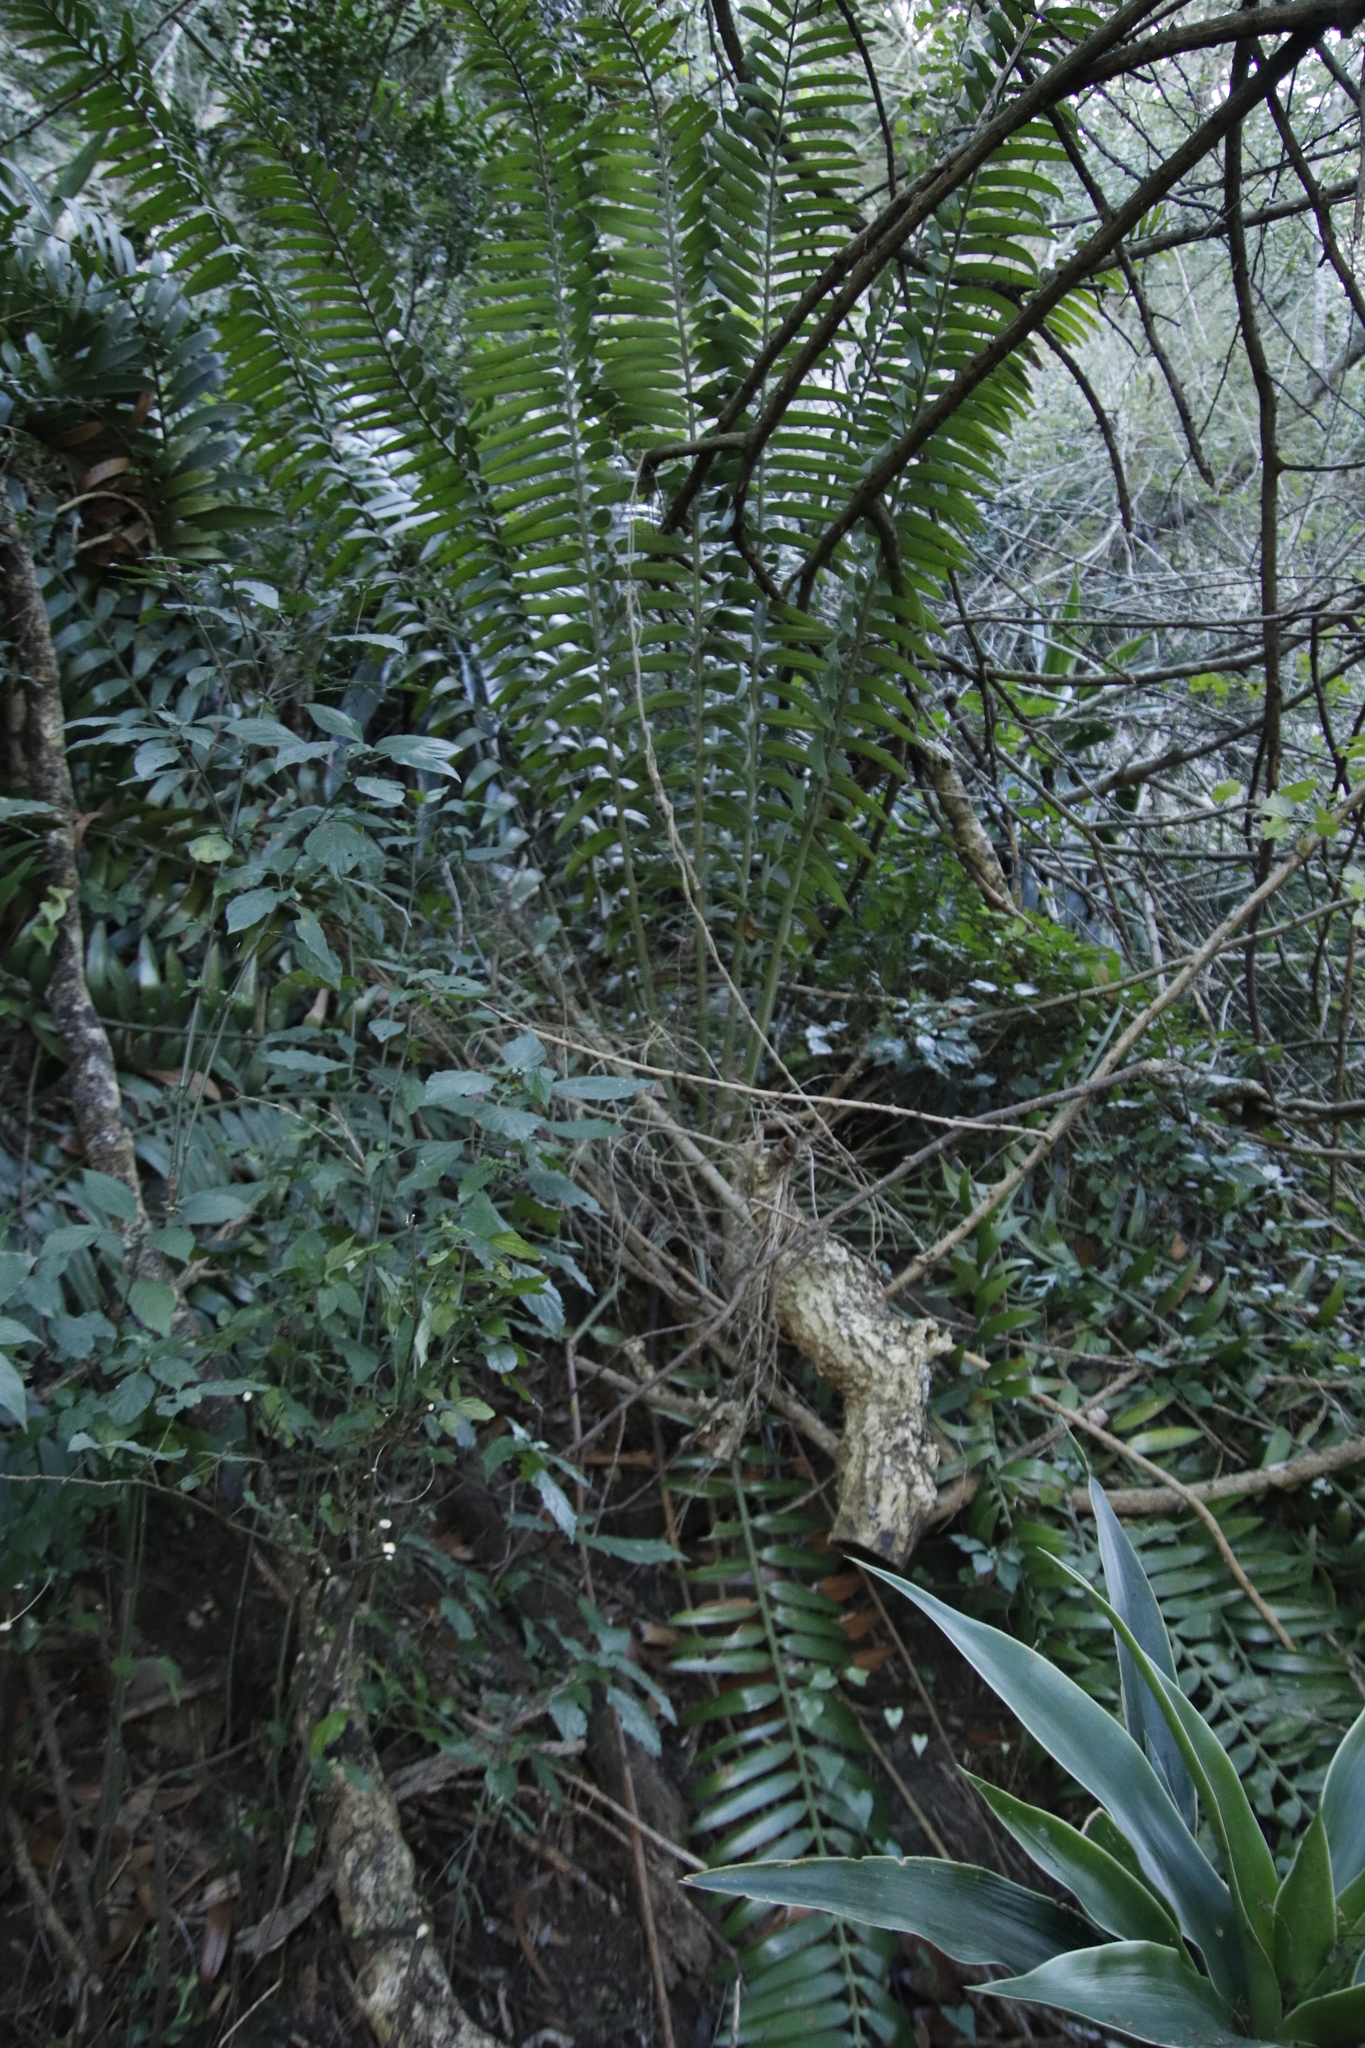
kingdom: Plantae
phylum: Tracheophyta
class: Cycadopsida
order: Cycadales
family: Zamiaceae
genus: Encephalartos
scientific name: Encephalartos natalensis
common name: Natal cycad
